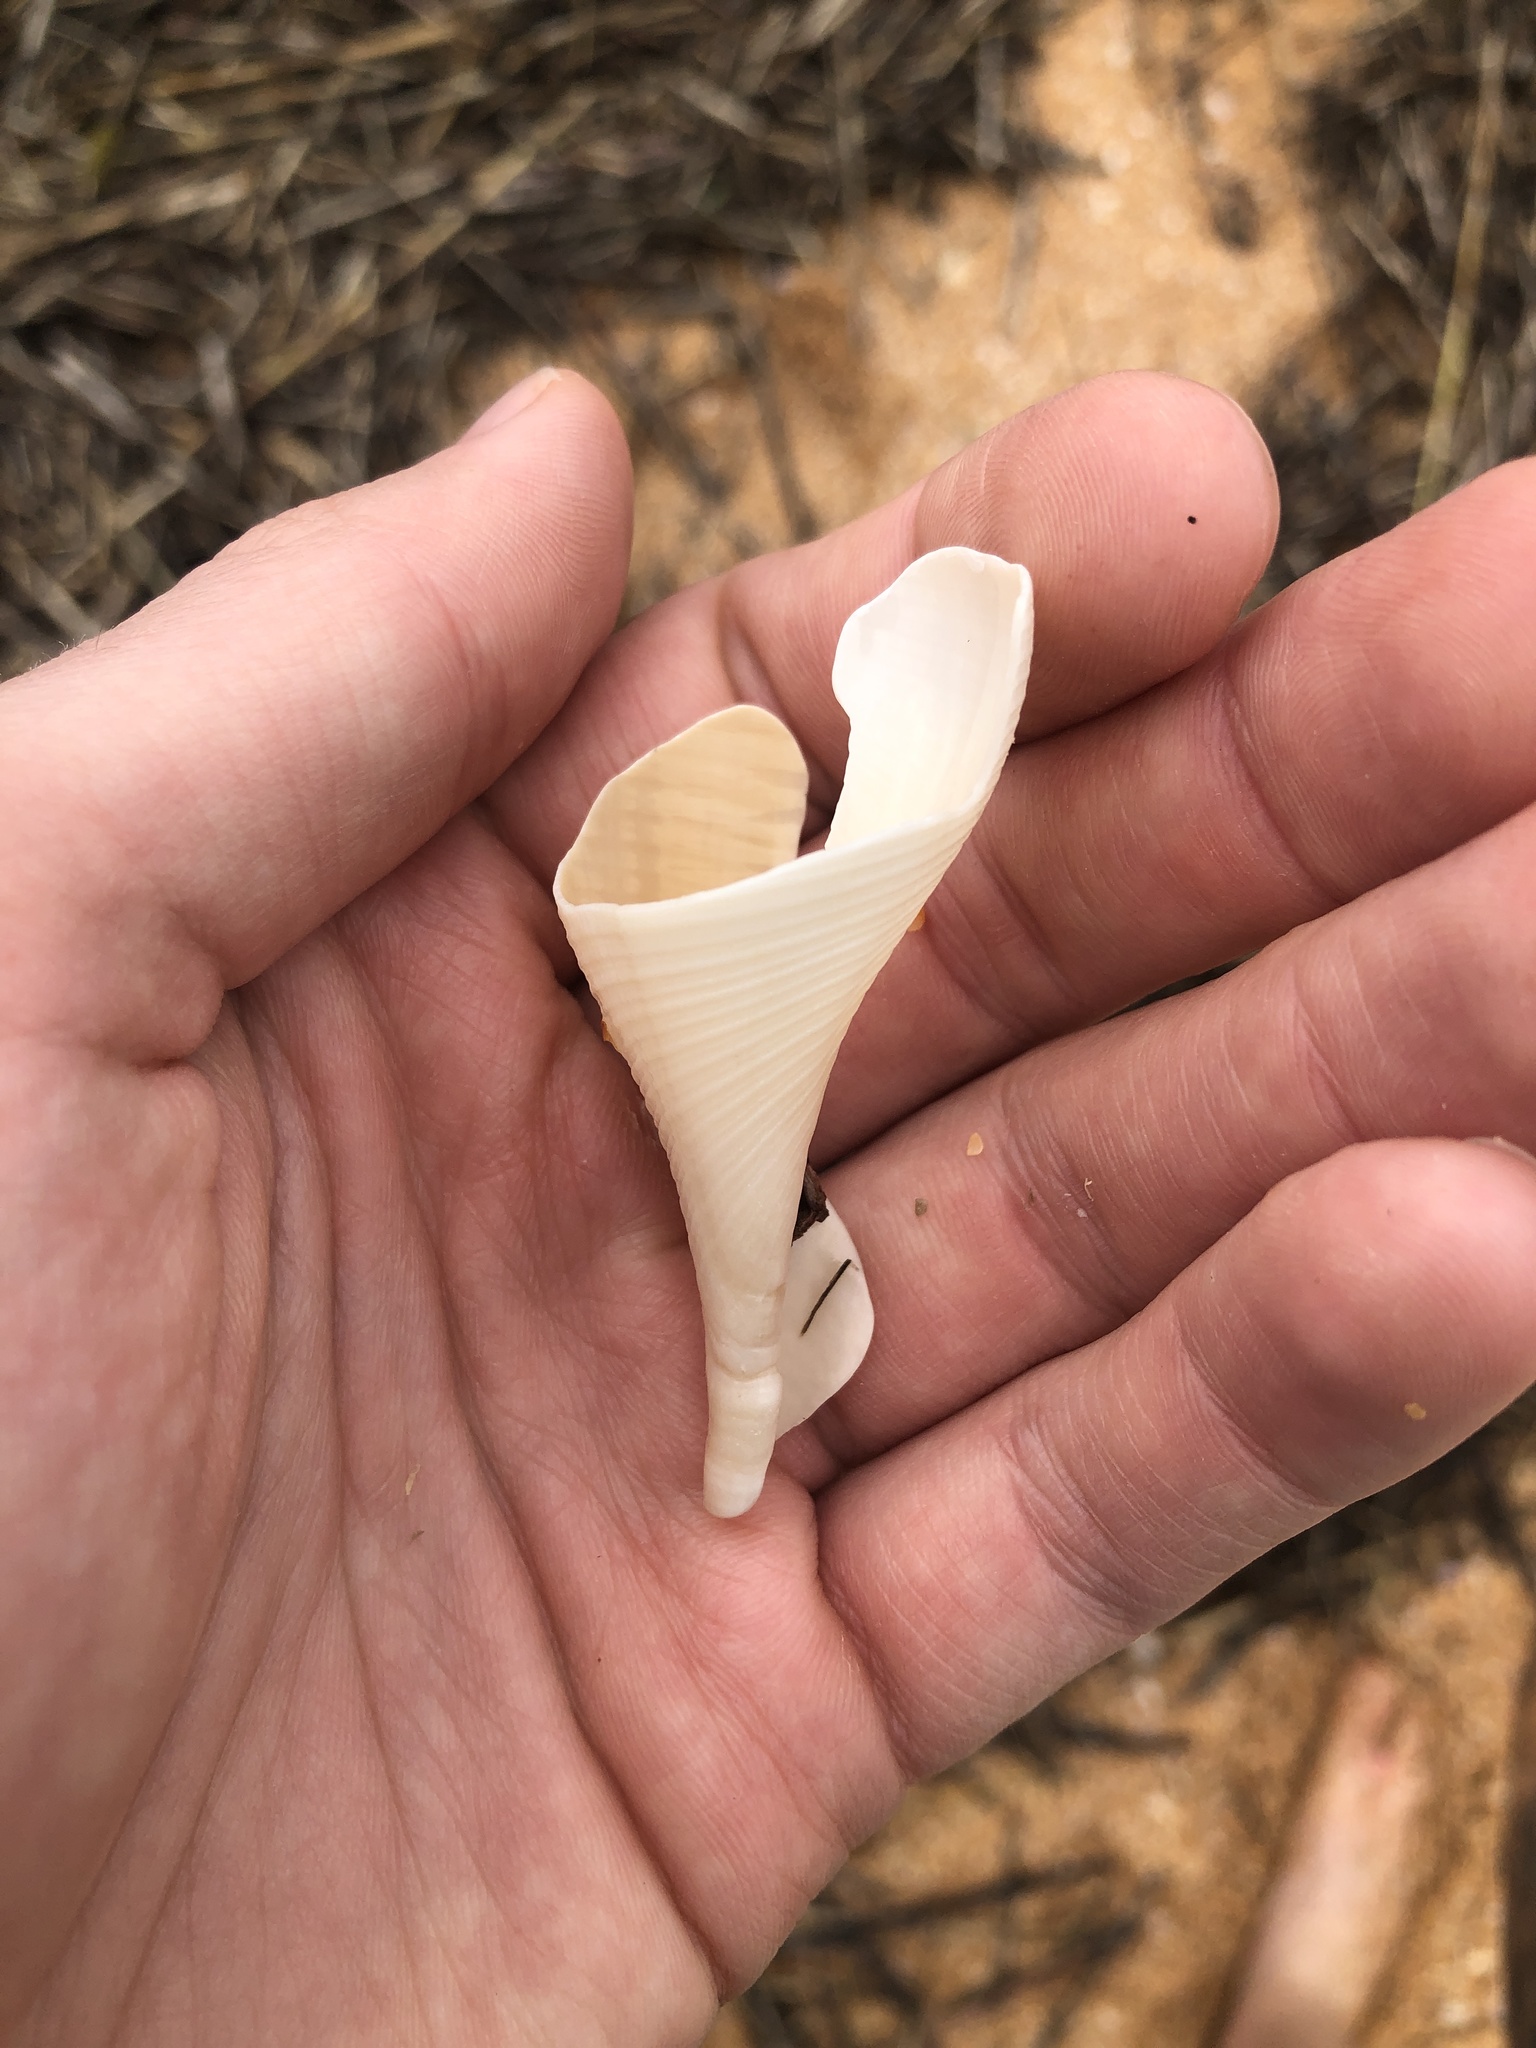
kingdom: Animalia
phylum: Mollusca
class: Gastropoda
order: Neogastropoda
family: Busyconidae
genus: Fulguropsis
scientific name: Fulguropsis pyruloides
